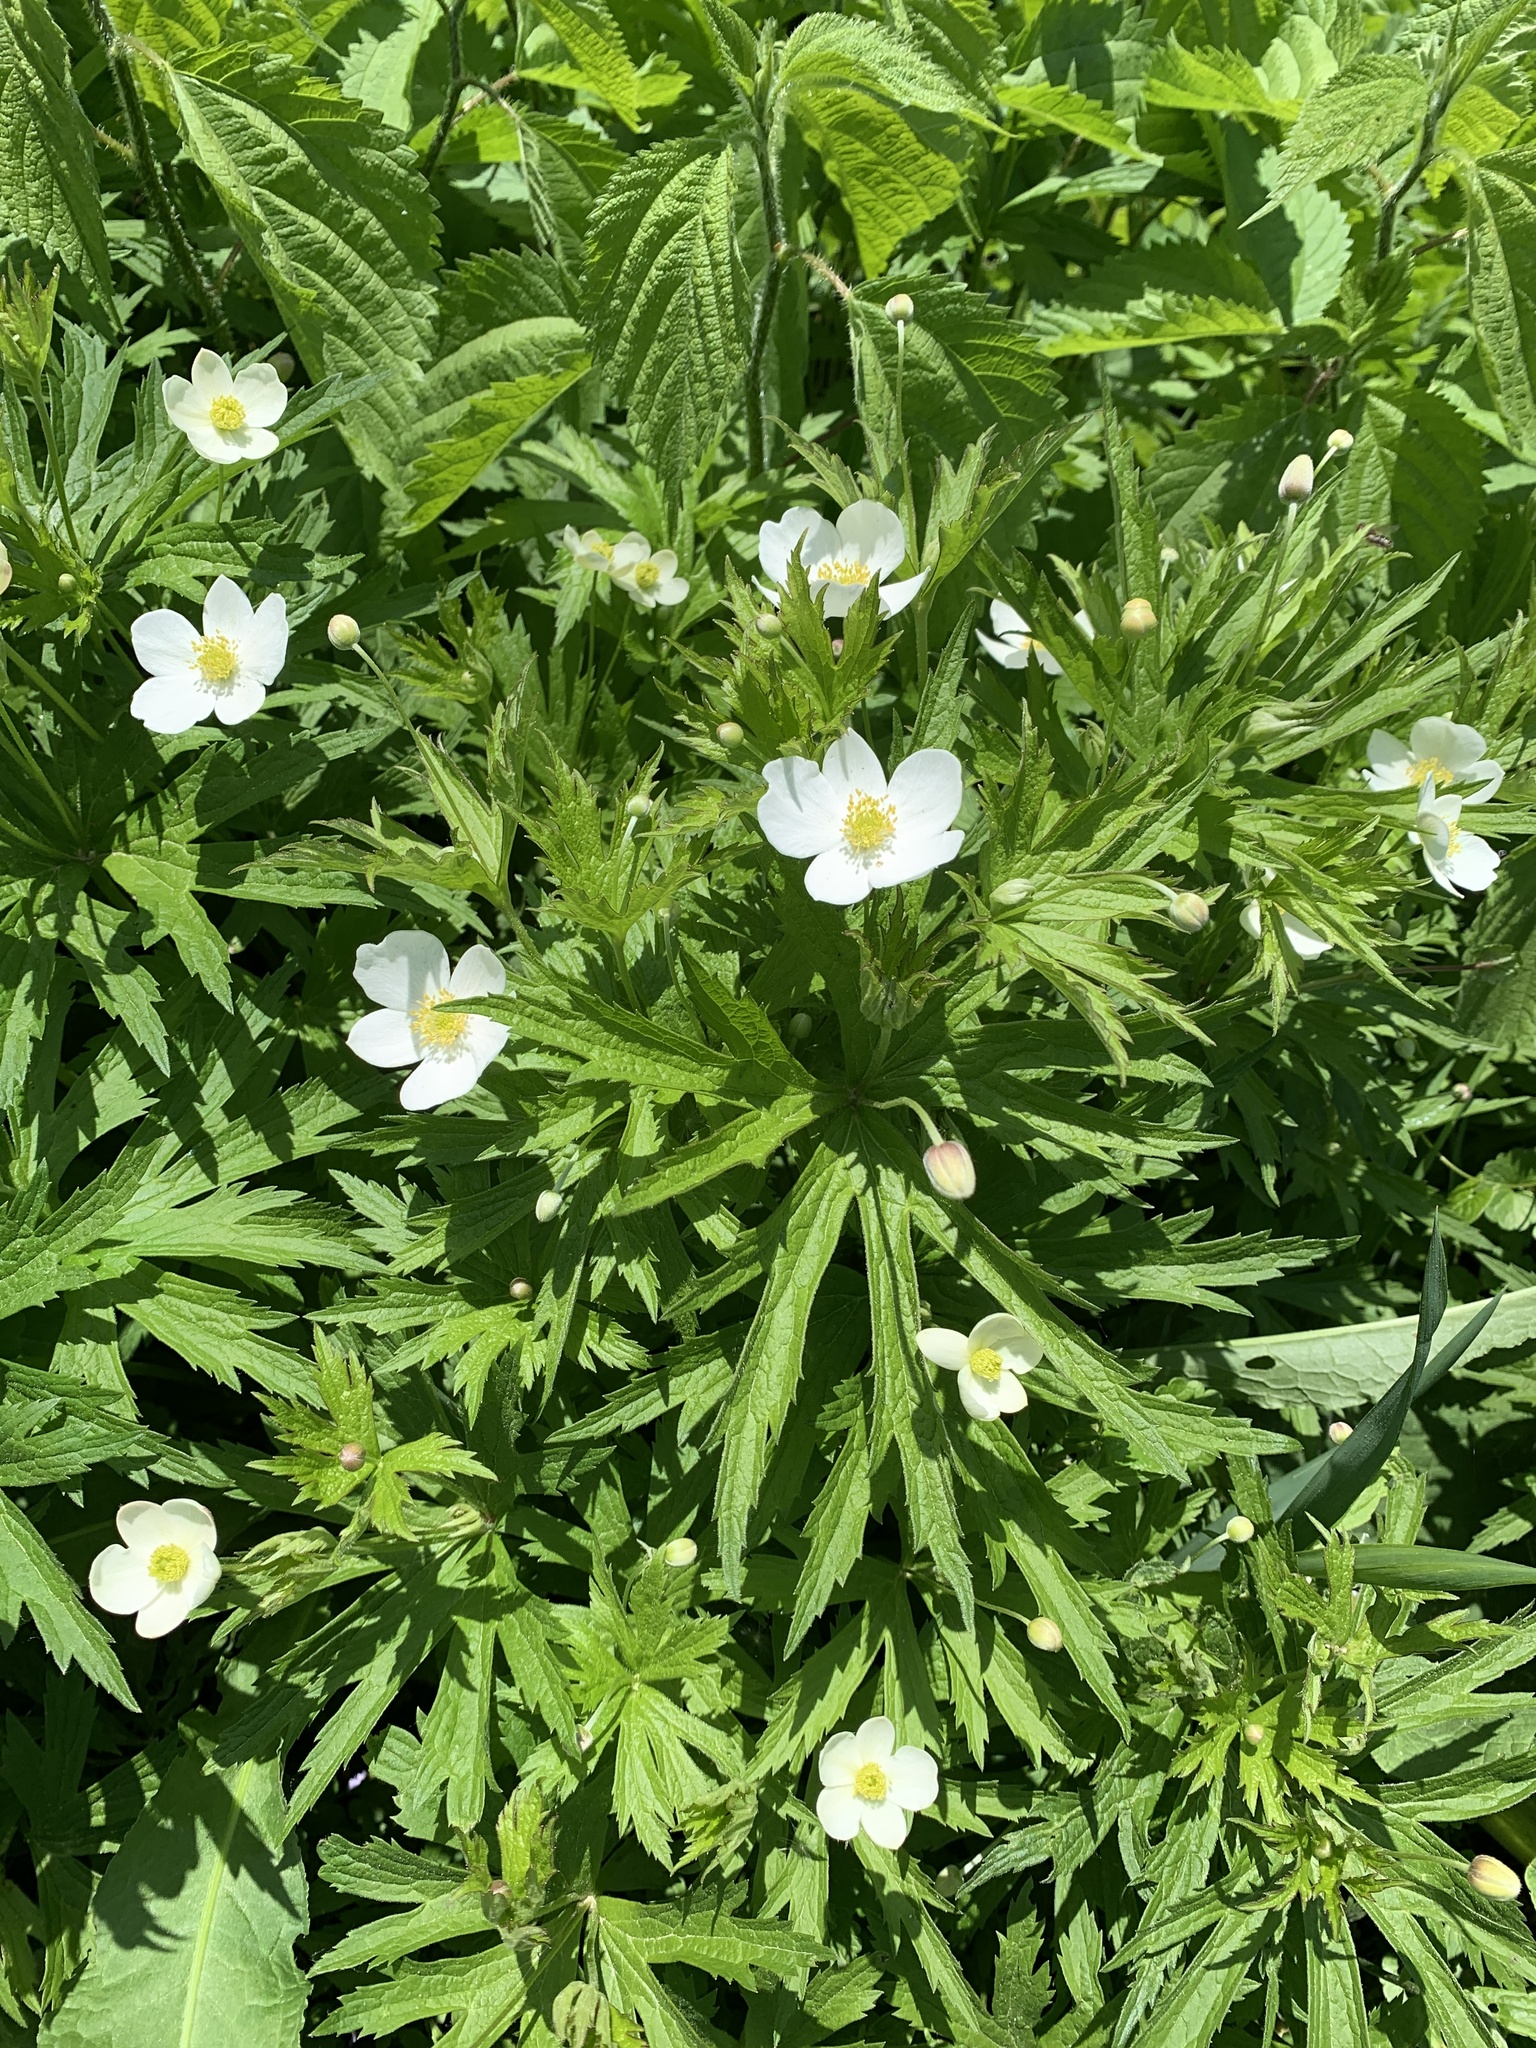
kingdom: Plantae
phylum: Tracheophyta
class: Magnoliopsida
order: Ranunculales
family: Ranunculaceae
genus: Anemonastrum
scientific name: Anemonastrum canadense
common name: Canada anemone
